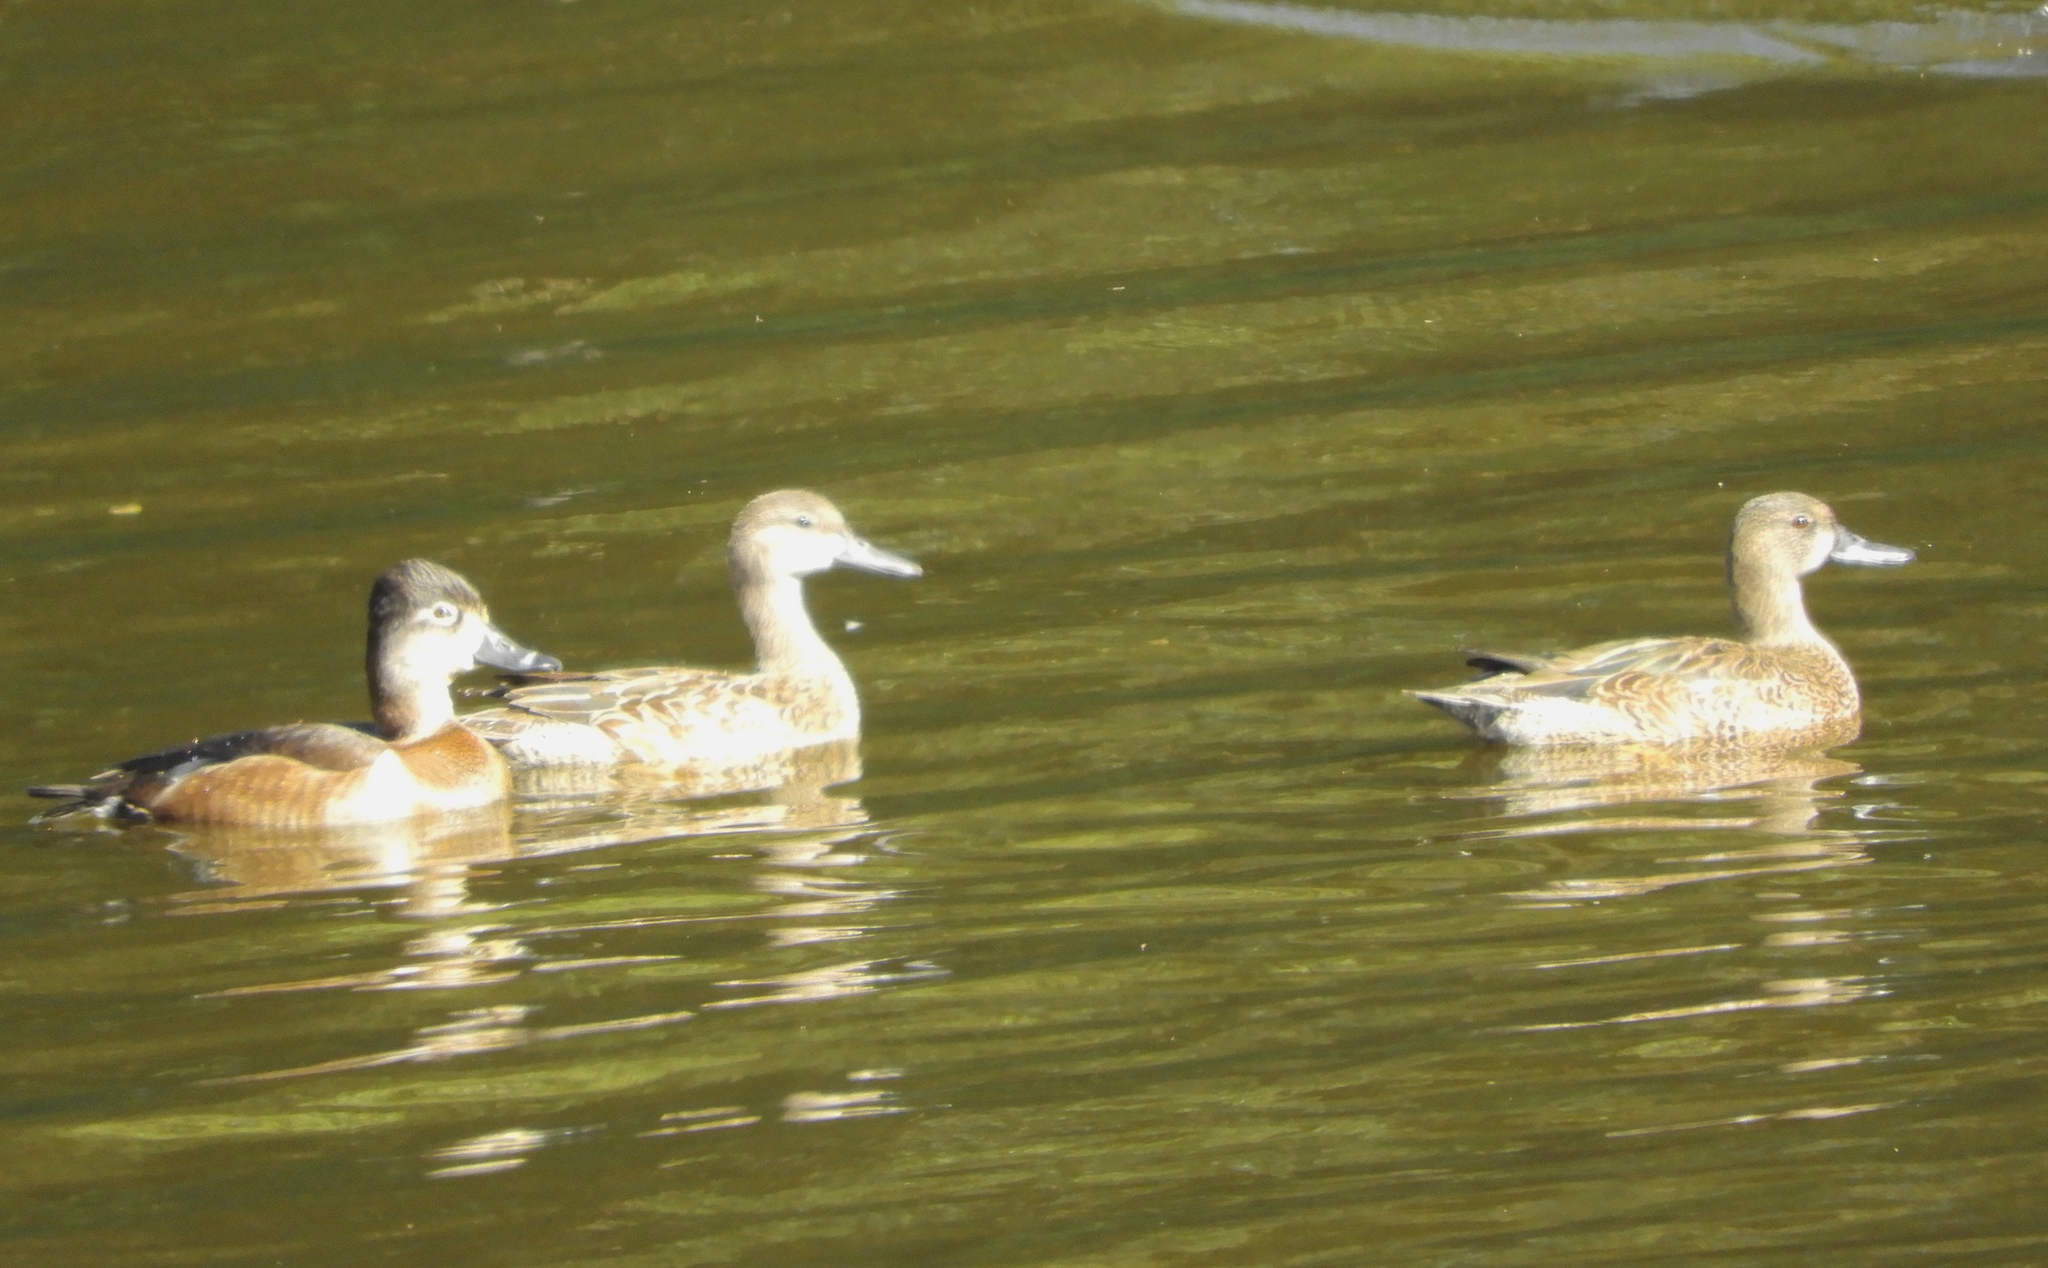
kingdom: Animalia
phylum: Chordata
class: Aves
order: Anseriformes
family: Anatidae
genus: Aythya
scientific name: Aythya collaris
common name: Ring-necked duck
